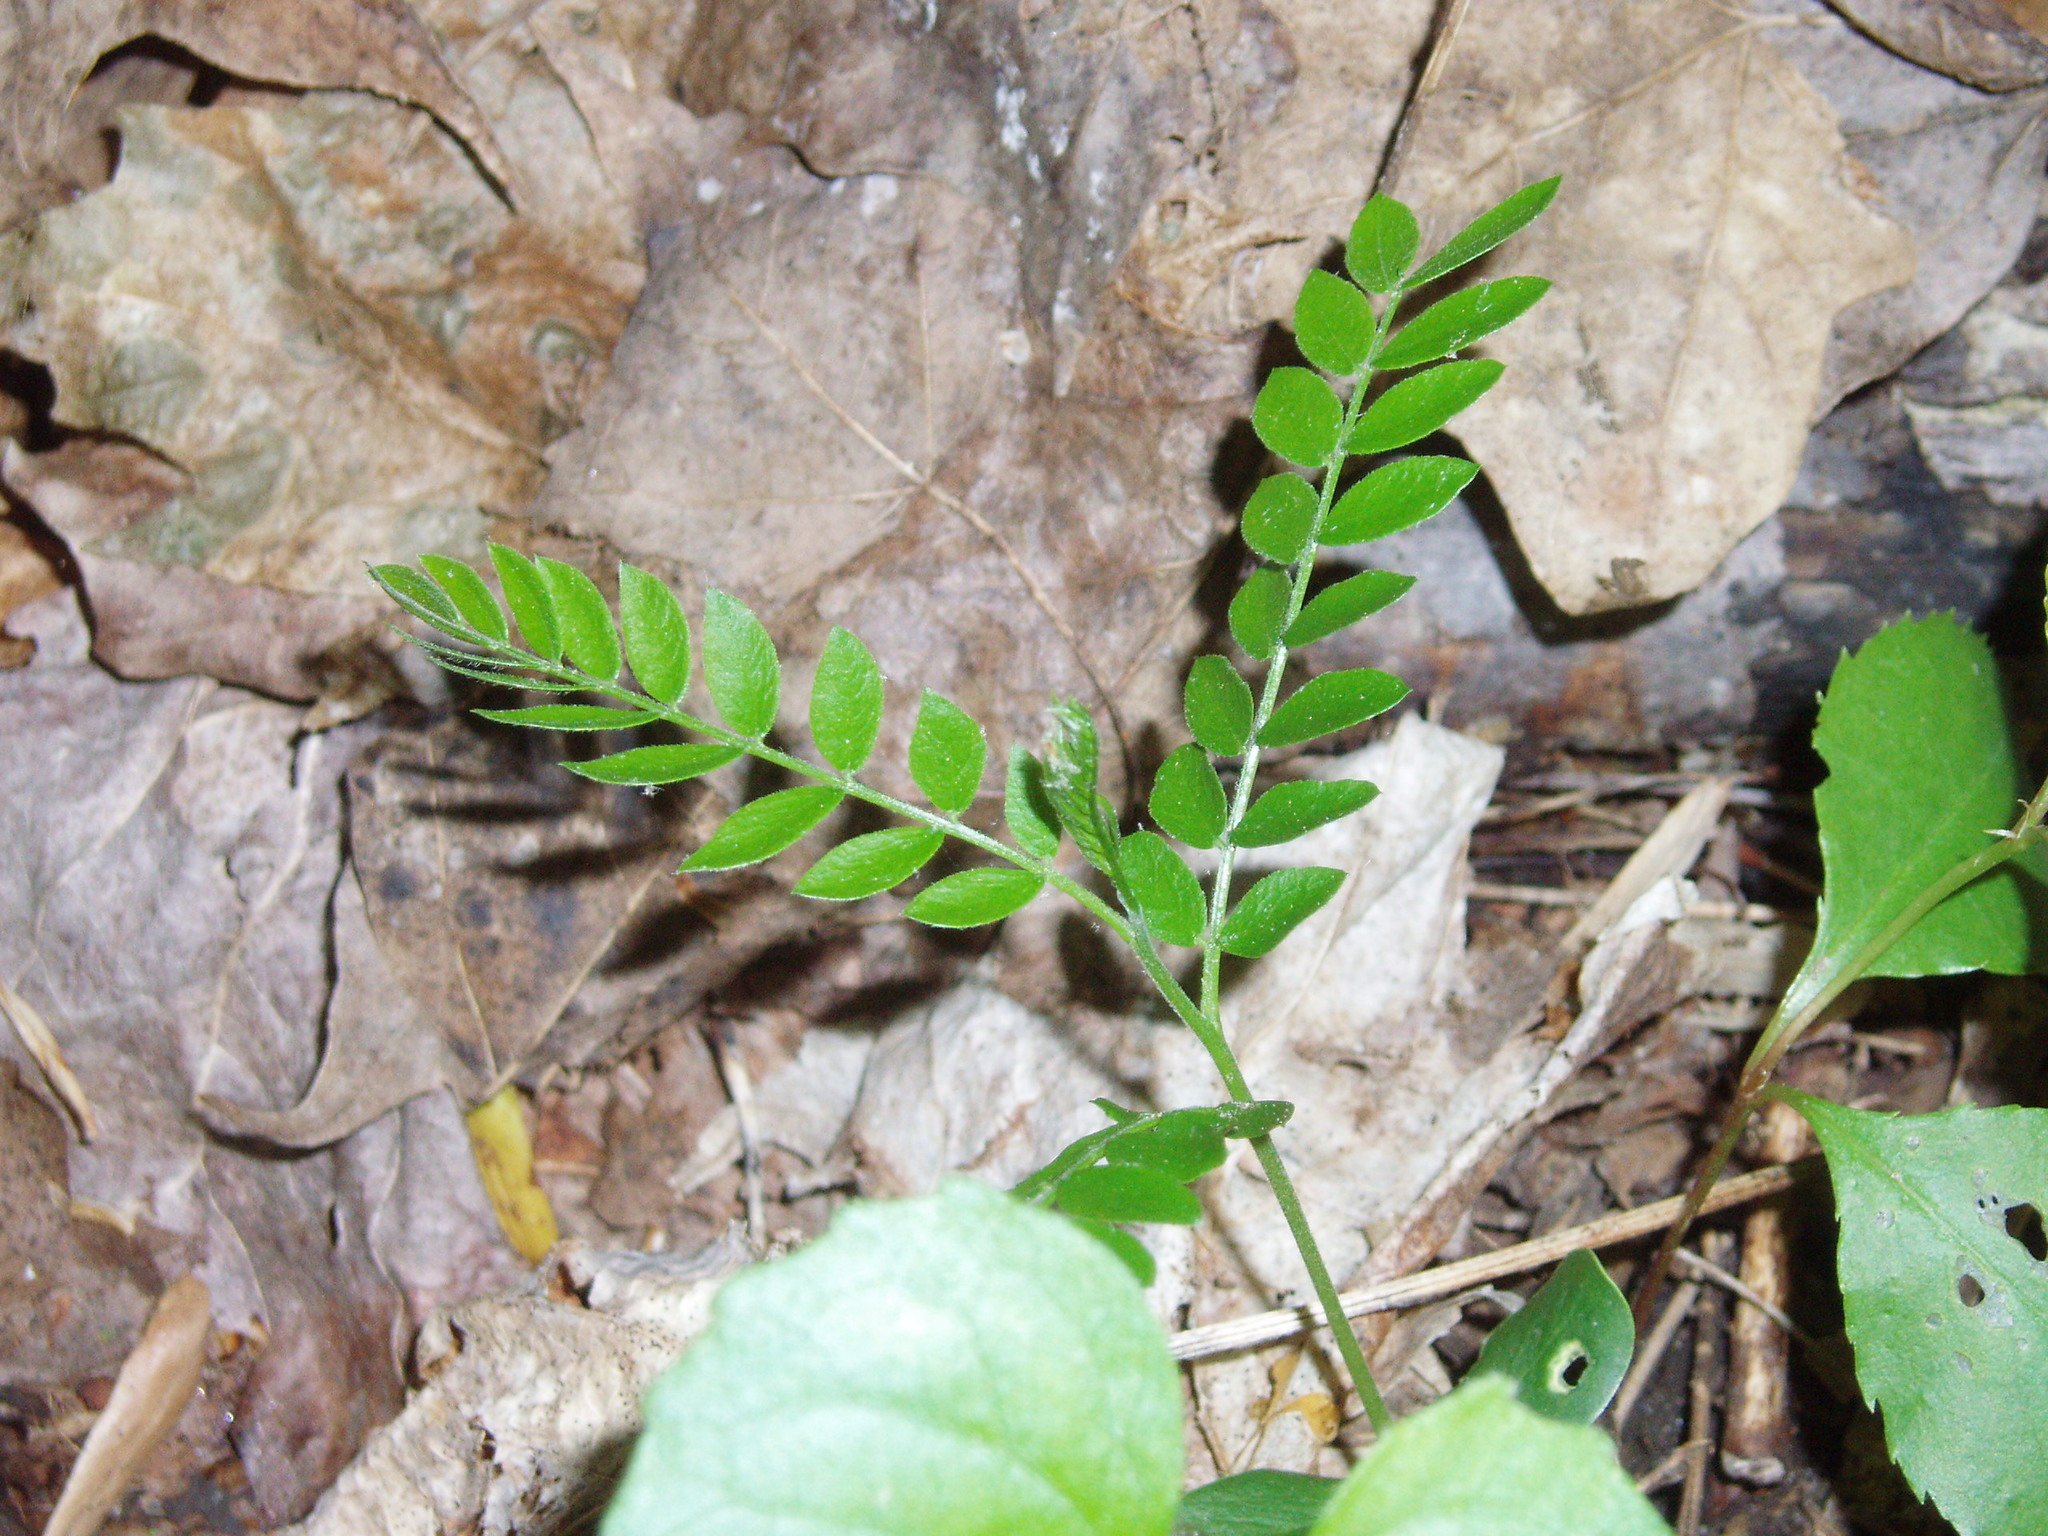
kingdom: Plantae
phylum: Tracheophyta
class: Magnoliopsida
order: Fabales
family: Fabaceae
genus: Gleditsia
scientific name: Gleditsia triacanthos
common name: Common honeylocust
